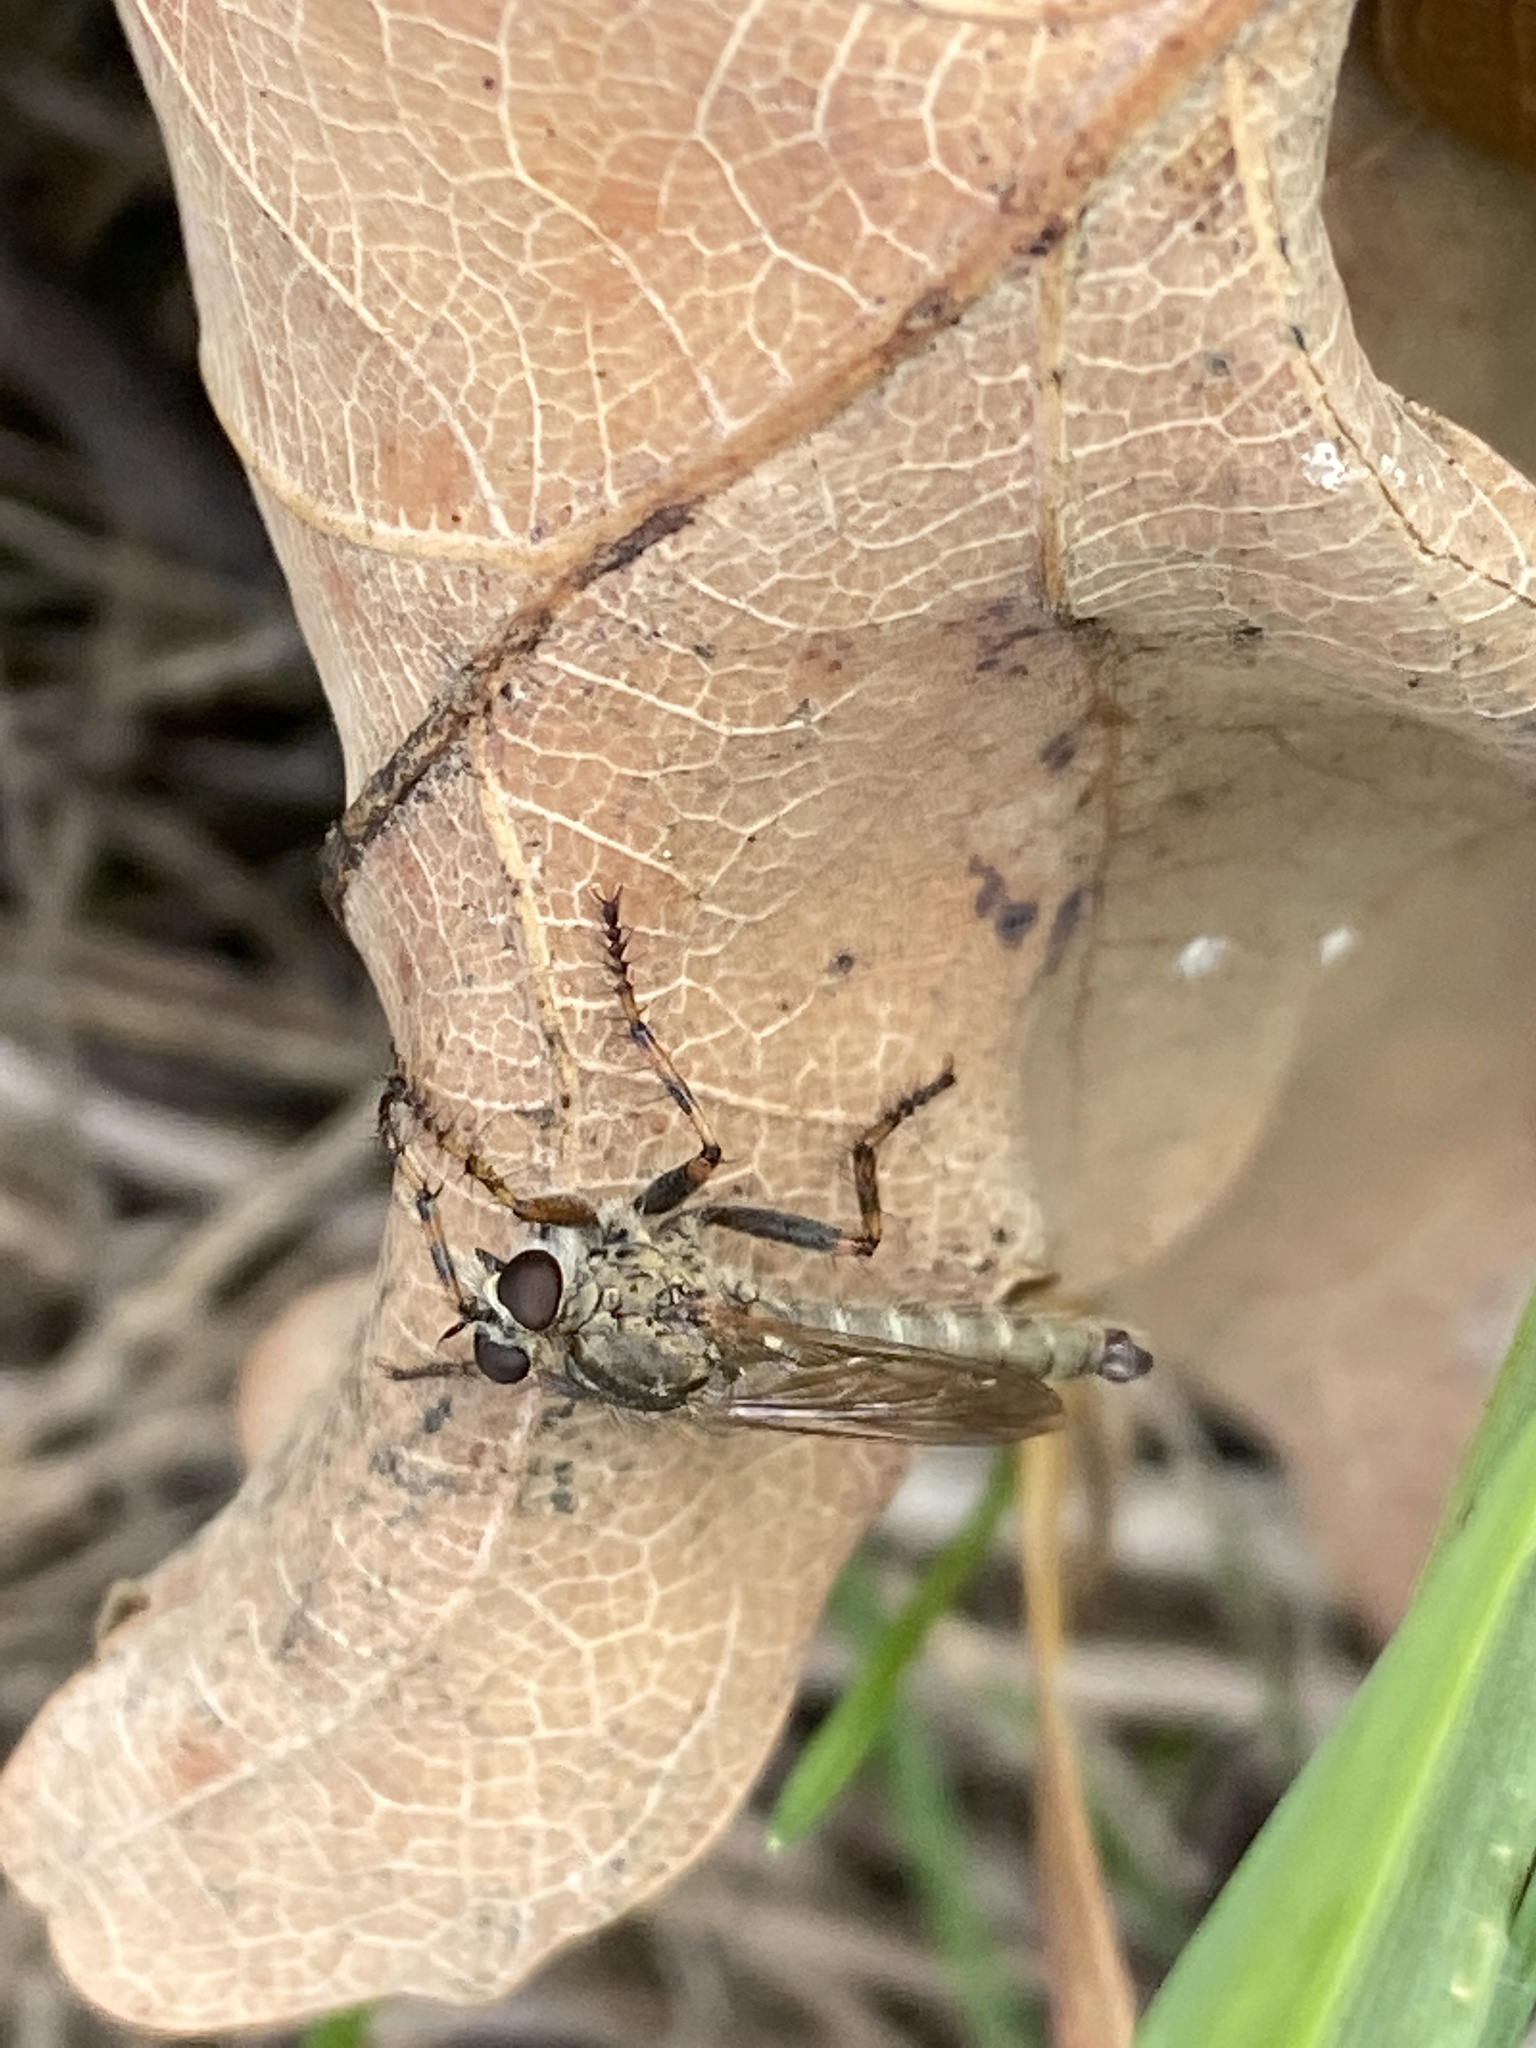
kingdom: Animalia
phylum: Arthropoda
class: Insecta
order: Diptera
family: Asilidae
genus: Epitriptus
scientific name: Epitriptus cingulatus
